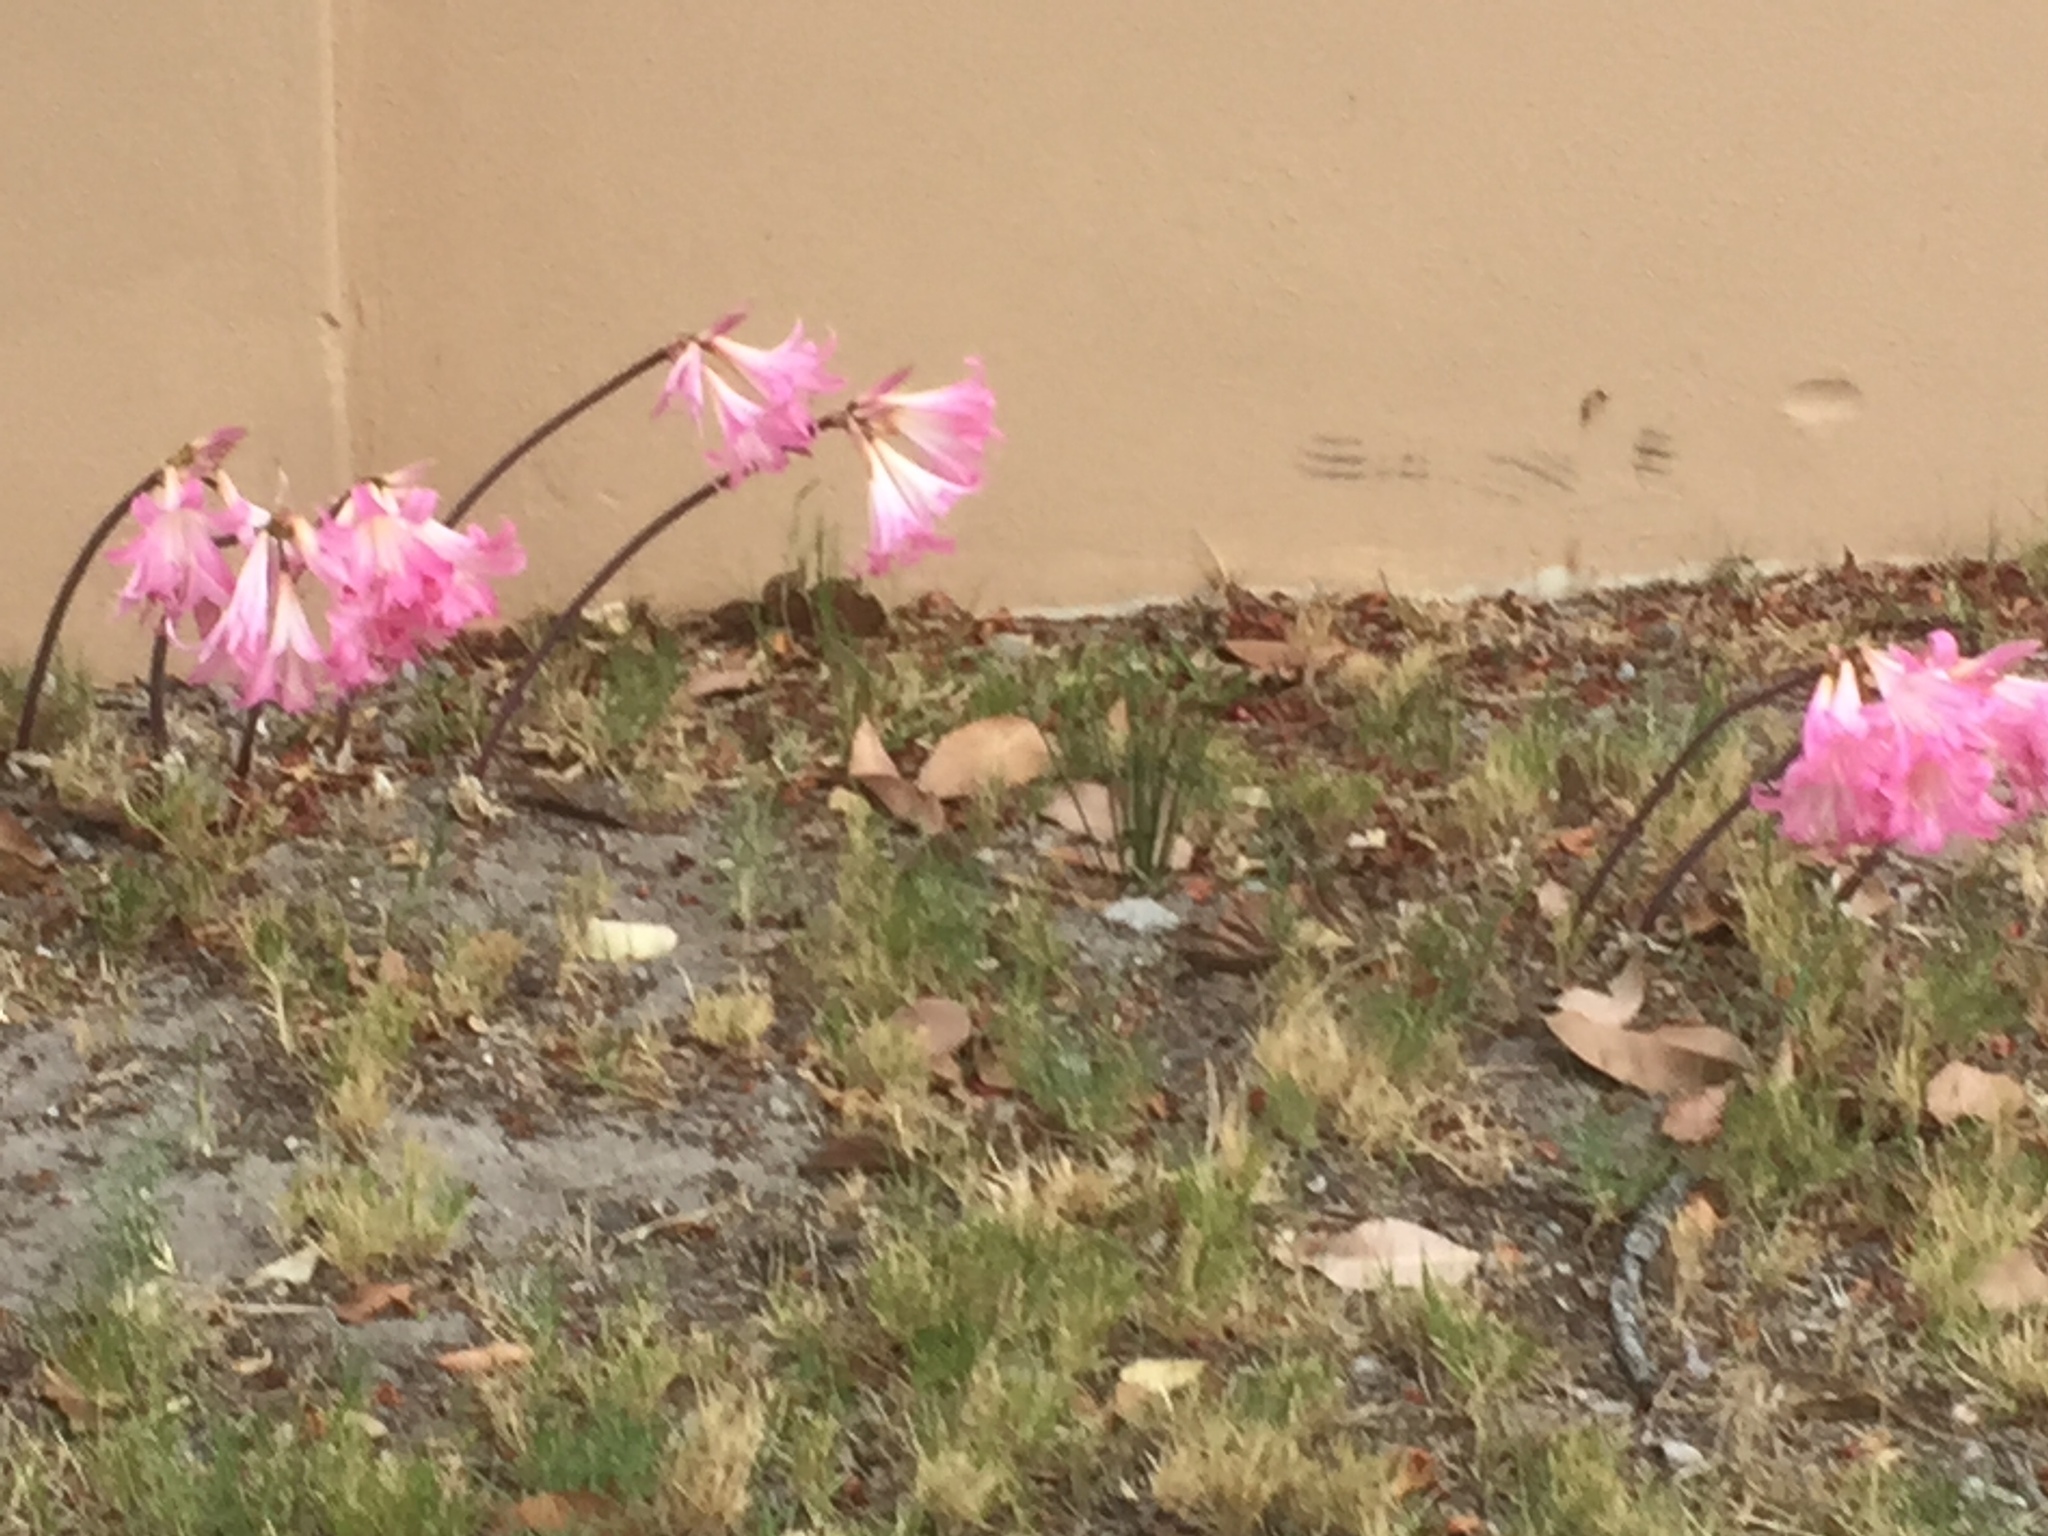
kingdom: Plantae
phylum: Tracheophyta
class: Liliopsida
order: Asparagales
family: Amaryllidaceae
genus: Amaryllis
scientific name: Amaryllis belladonna
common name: Jersey lily
